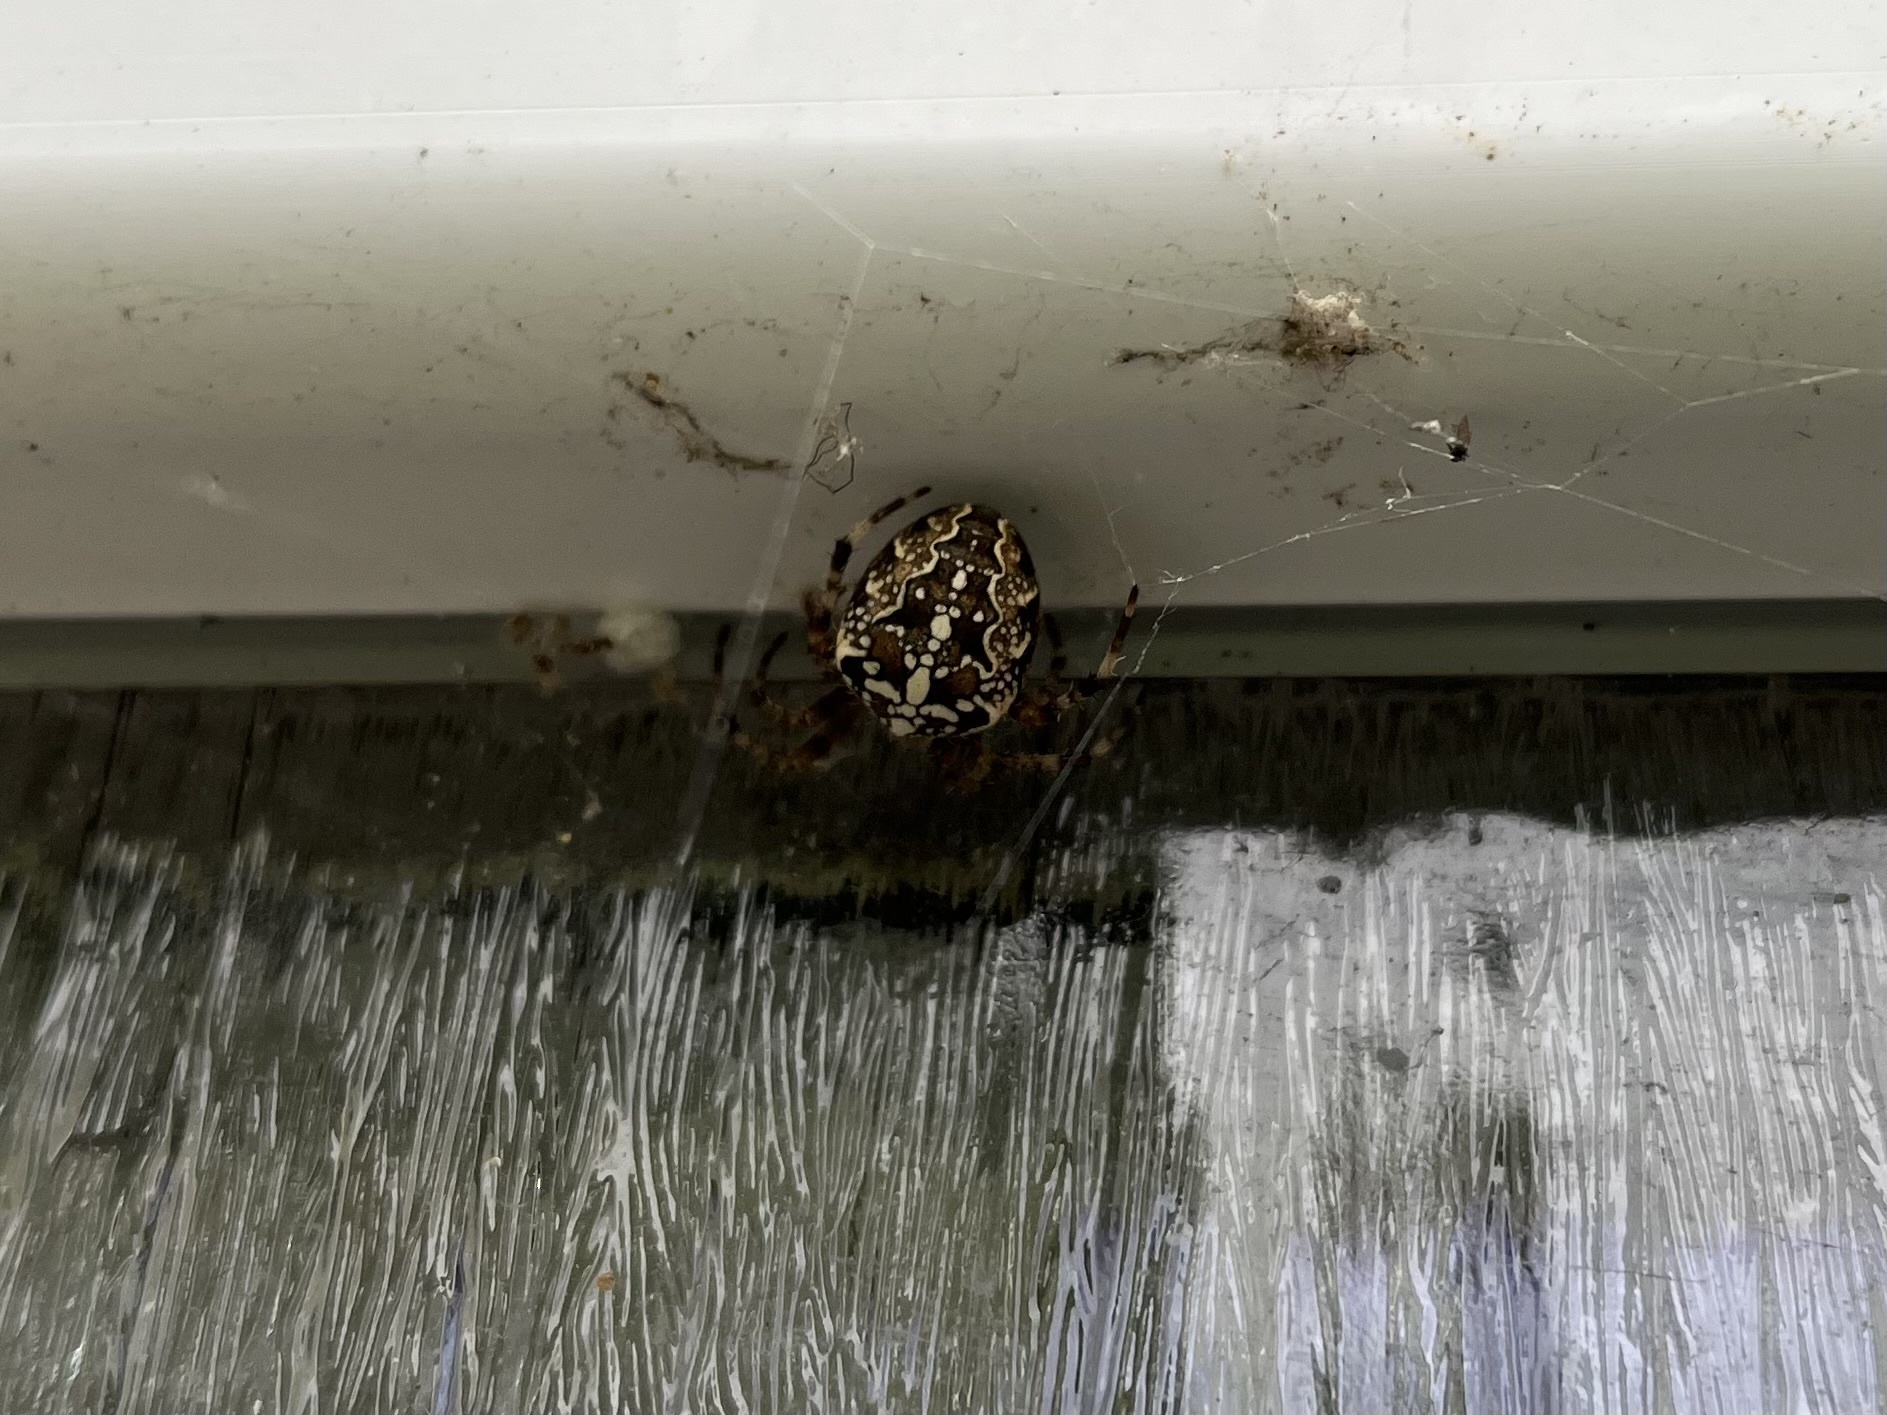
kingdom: Animalia
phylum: Arthropoda
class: Arachnida
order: Araneae
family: Araneidae
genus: Araneus
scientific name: Araneus diadematus
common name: Cross orbweaver
